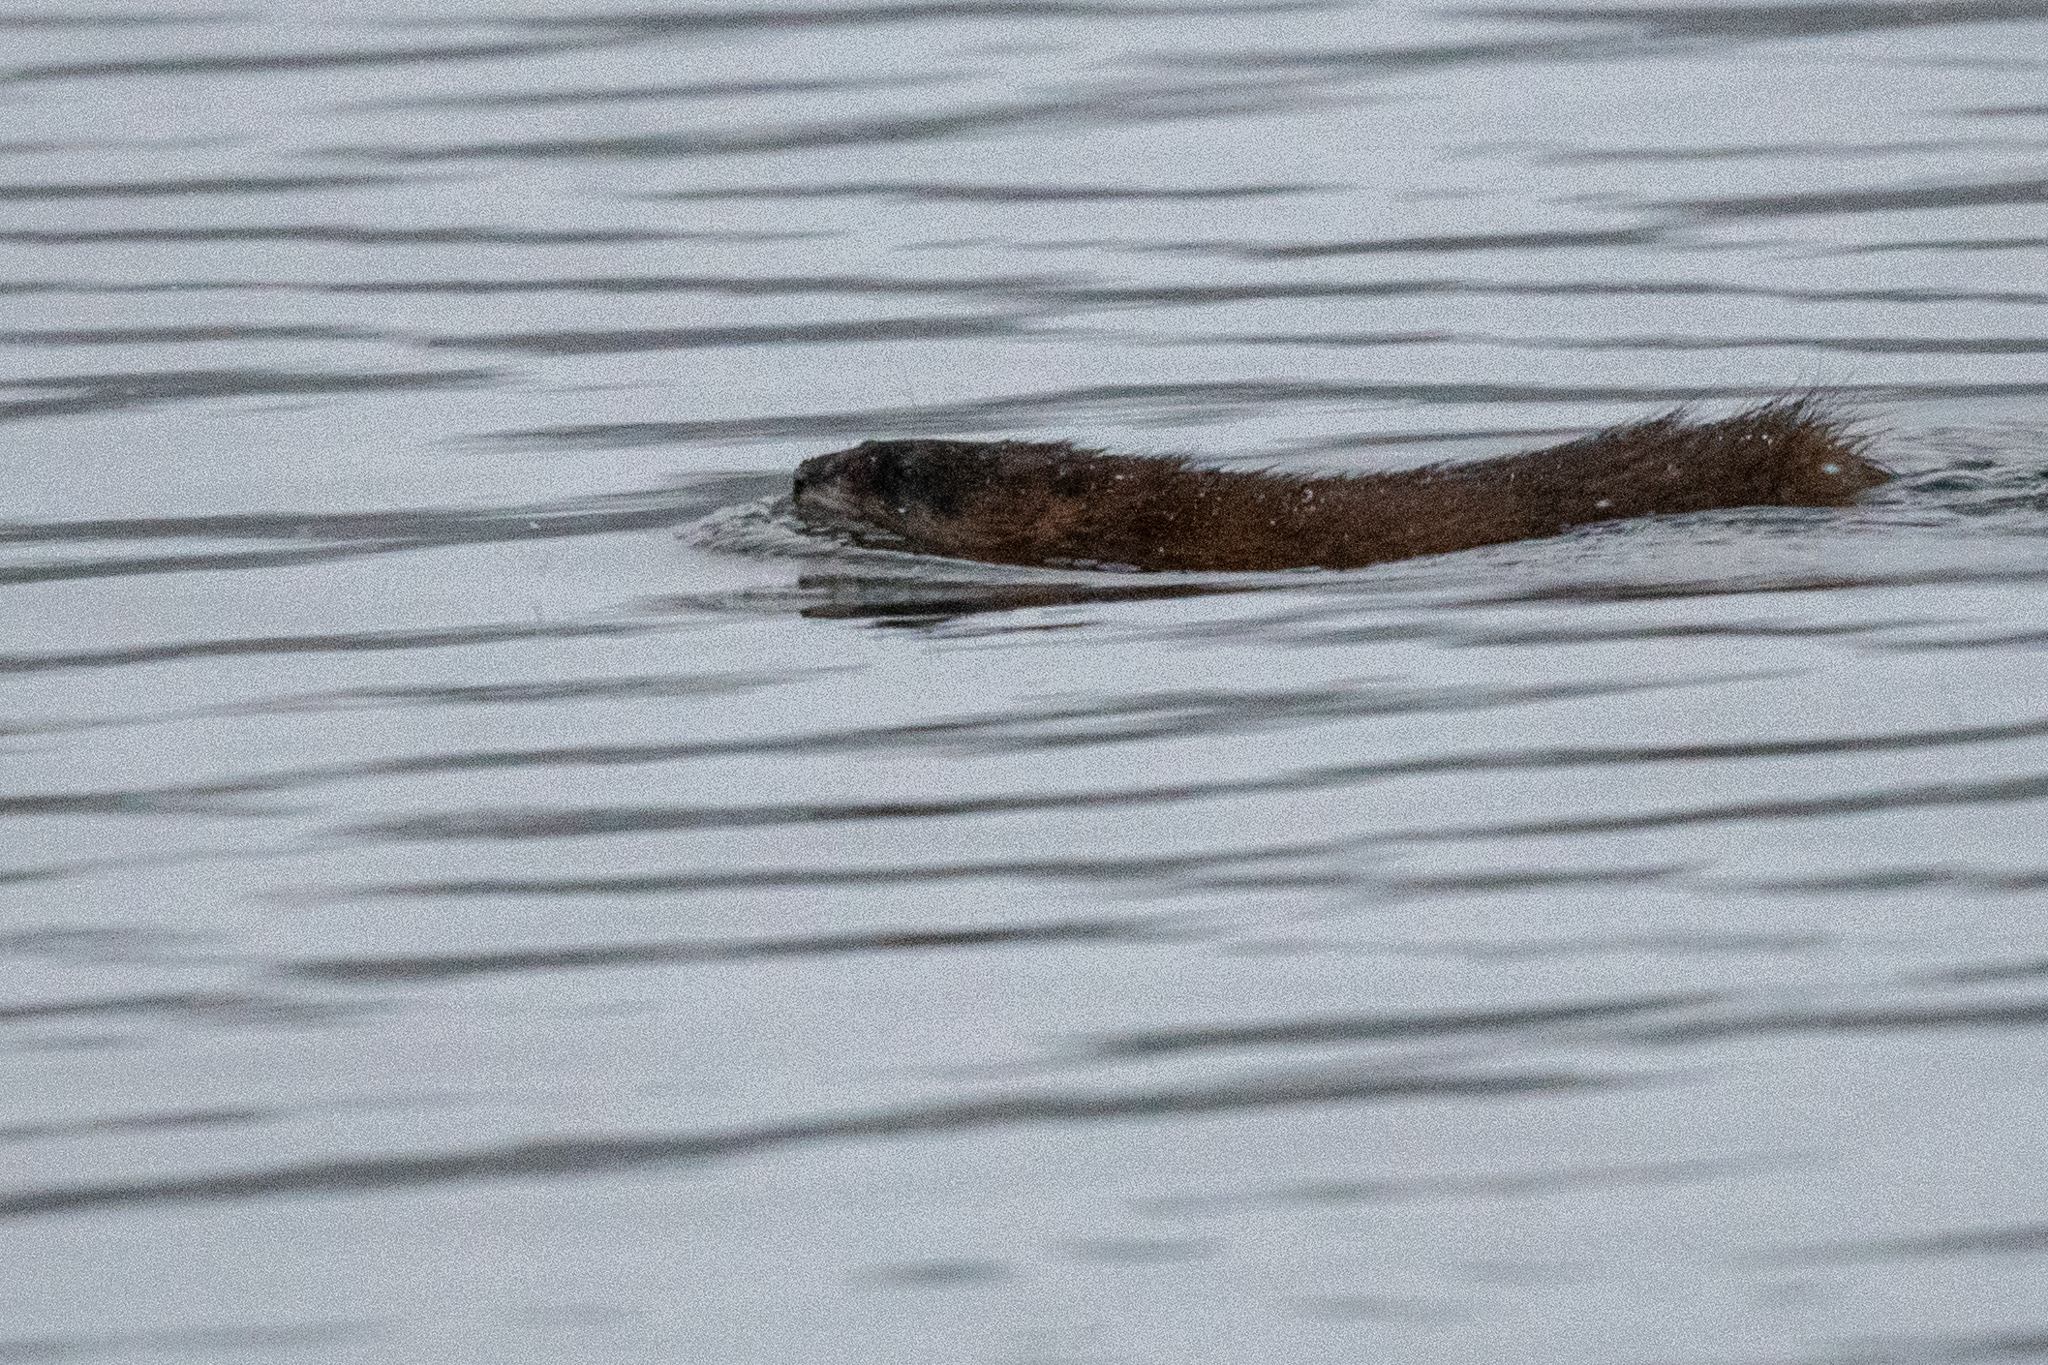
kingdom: Animalia
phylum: Chordata
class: Mammalia
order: Rodentia
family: Cricetidae
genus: Ondatra
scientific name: Ondatra zibethicus
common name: Muskrat
